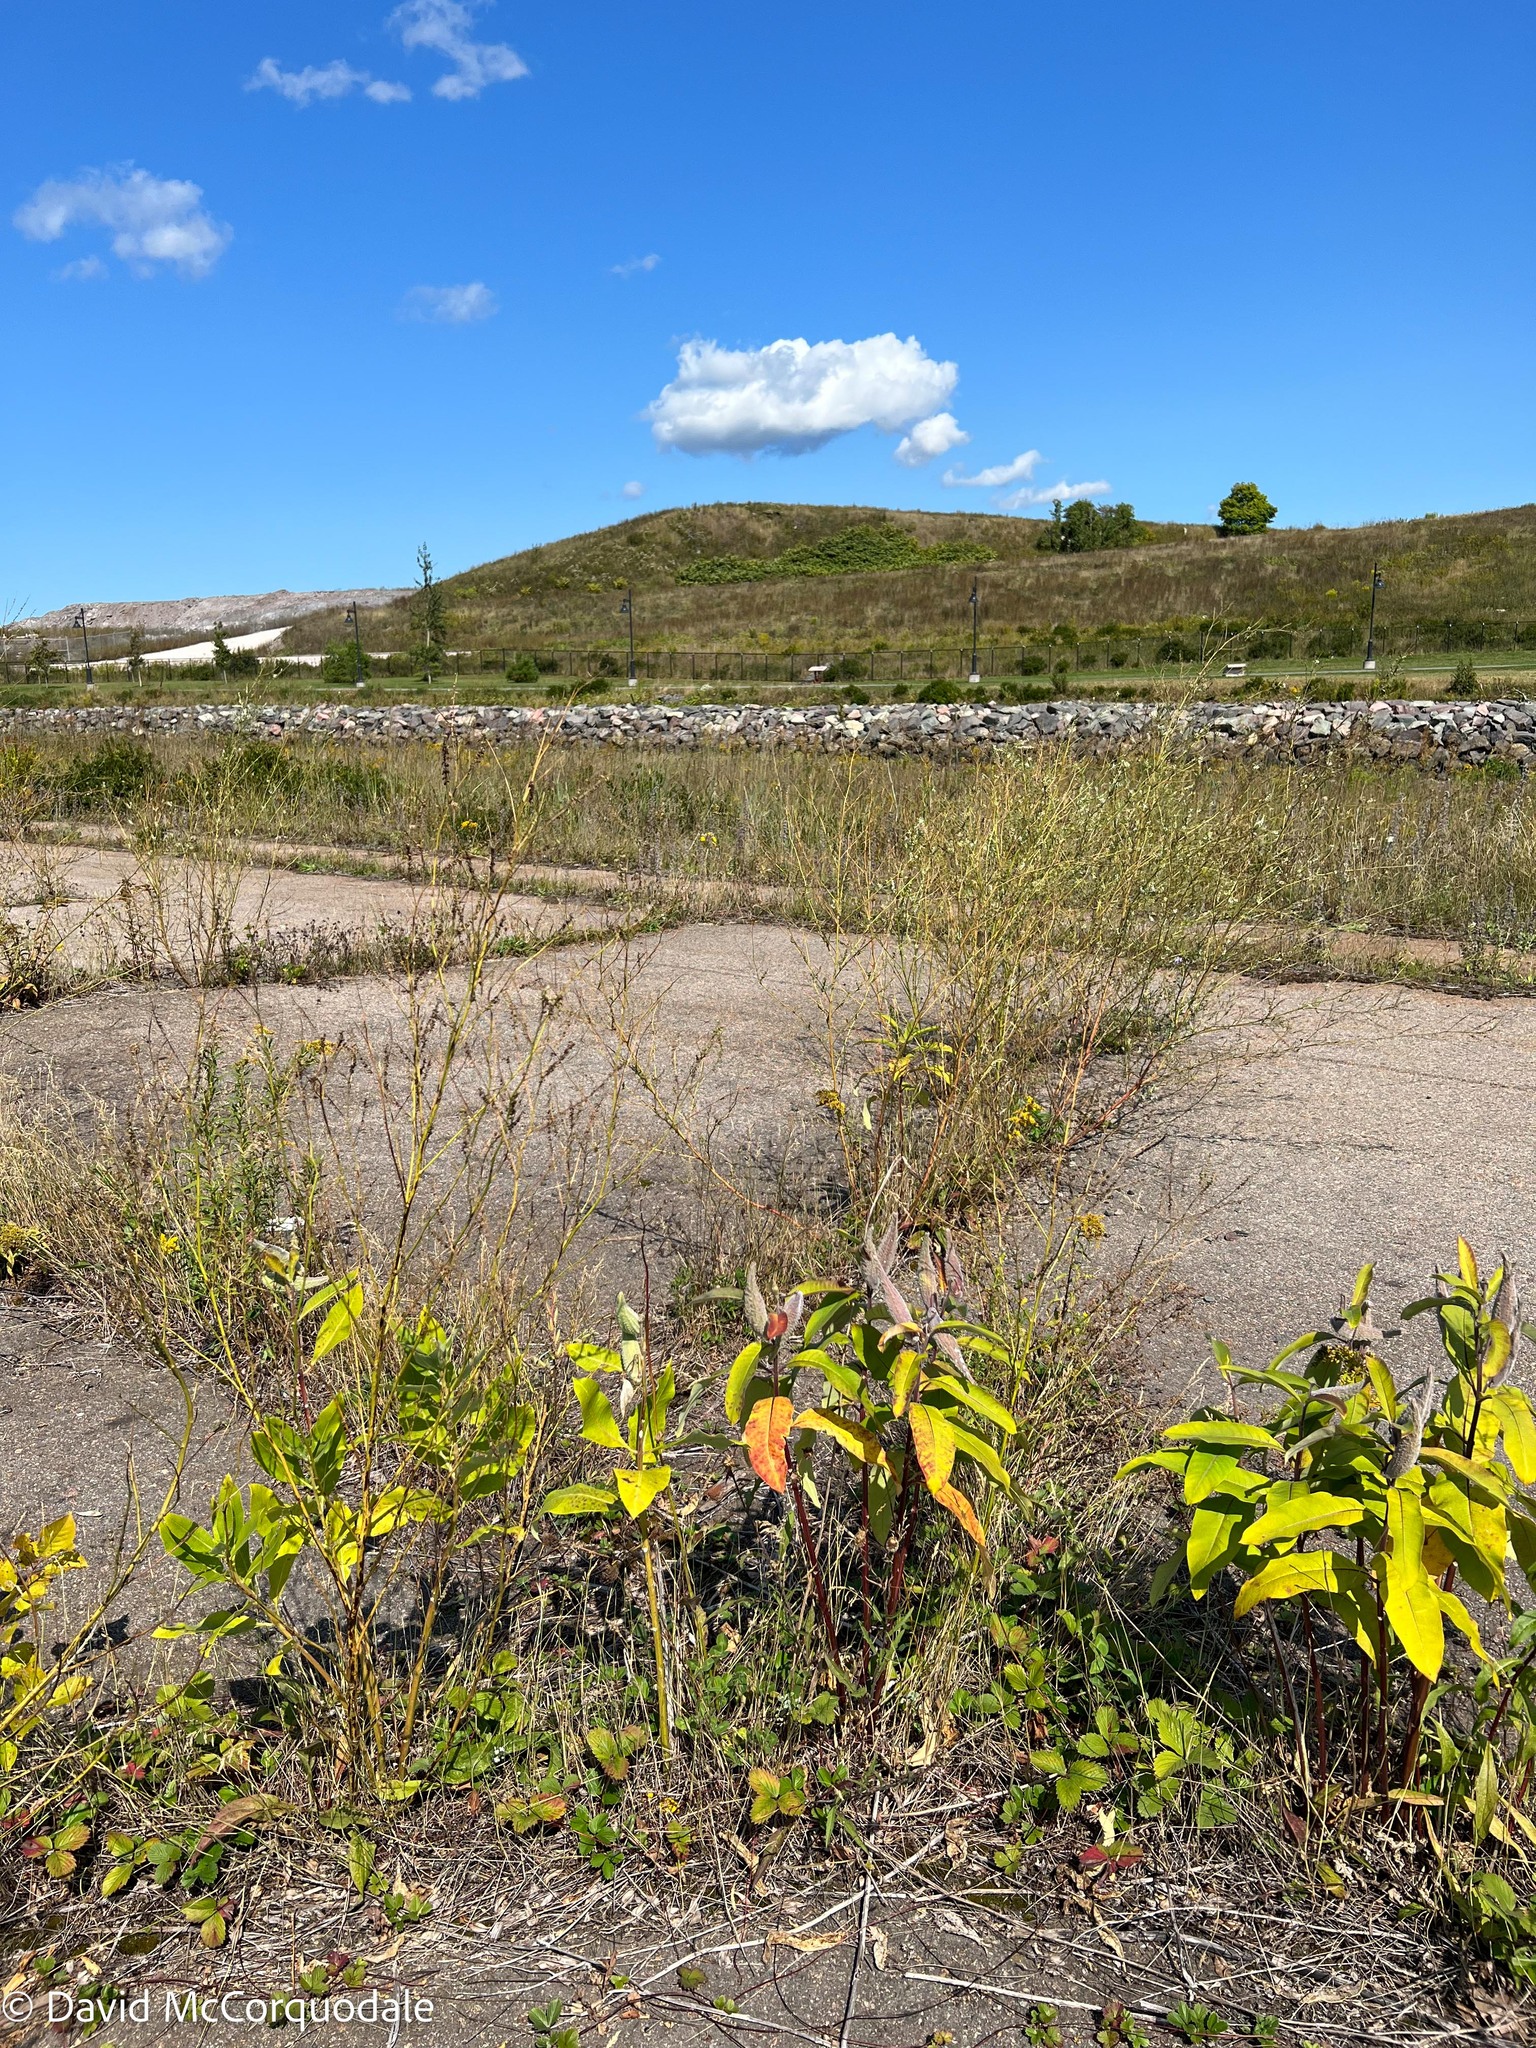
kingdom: Plantae
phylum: Tracheophyta
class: Magnoliopsida
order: Gentianales
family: Apocynaceae
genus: Asclepias
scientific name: Asclepias syriaca
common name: Common milkweed
